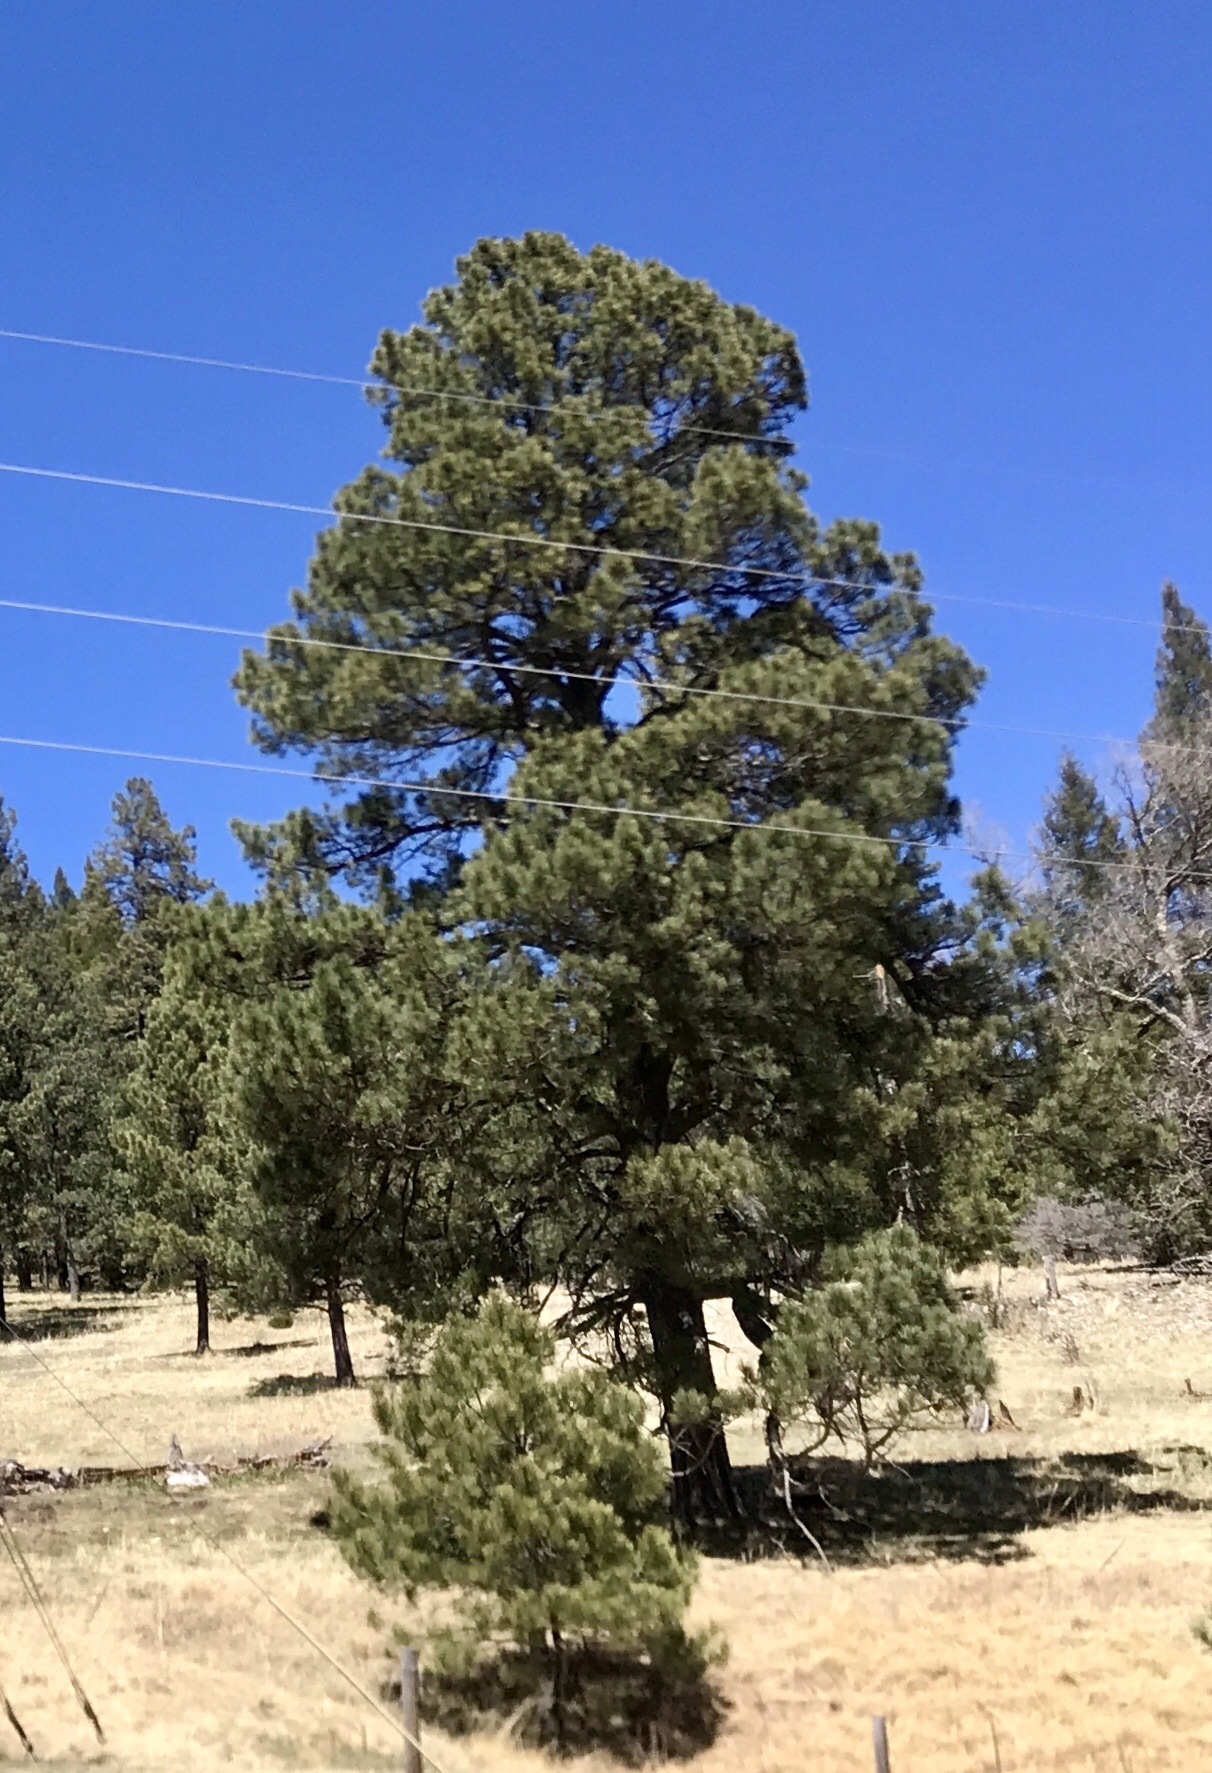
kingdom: Plantae
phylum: Tracheophyta
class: Pinopsida
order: Pinales
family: Pinaceae
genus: Pinus
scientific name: Pinus ponderosa
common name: Western yellow-pine
